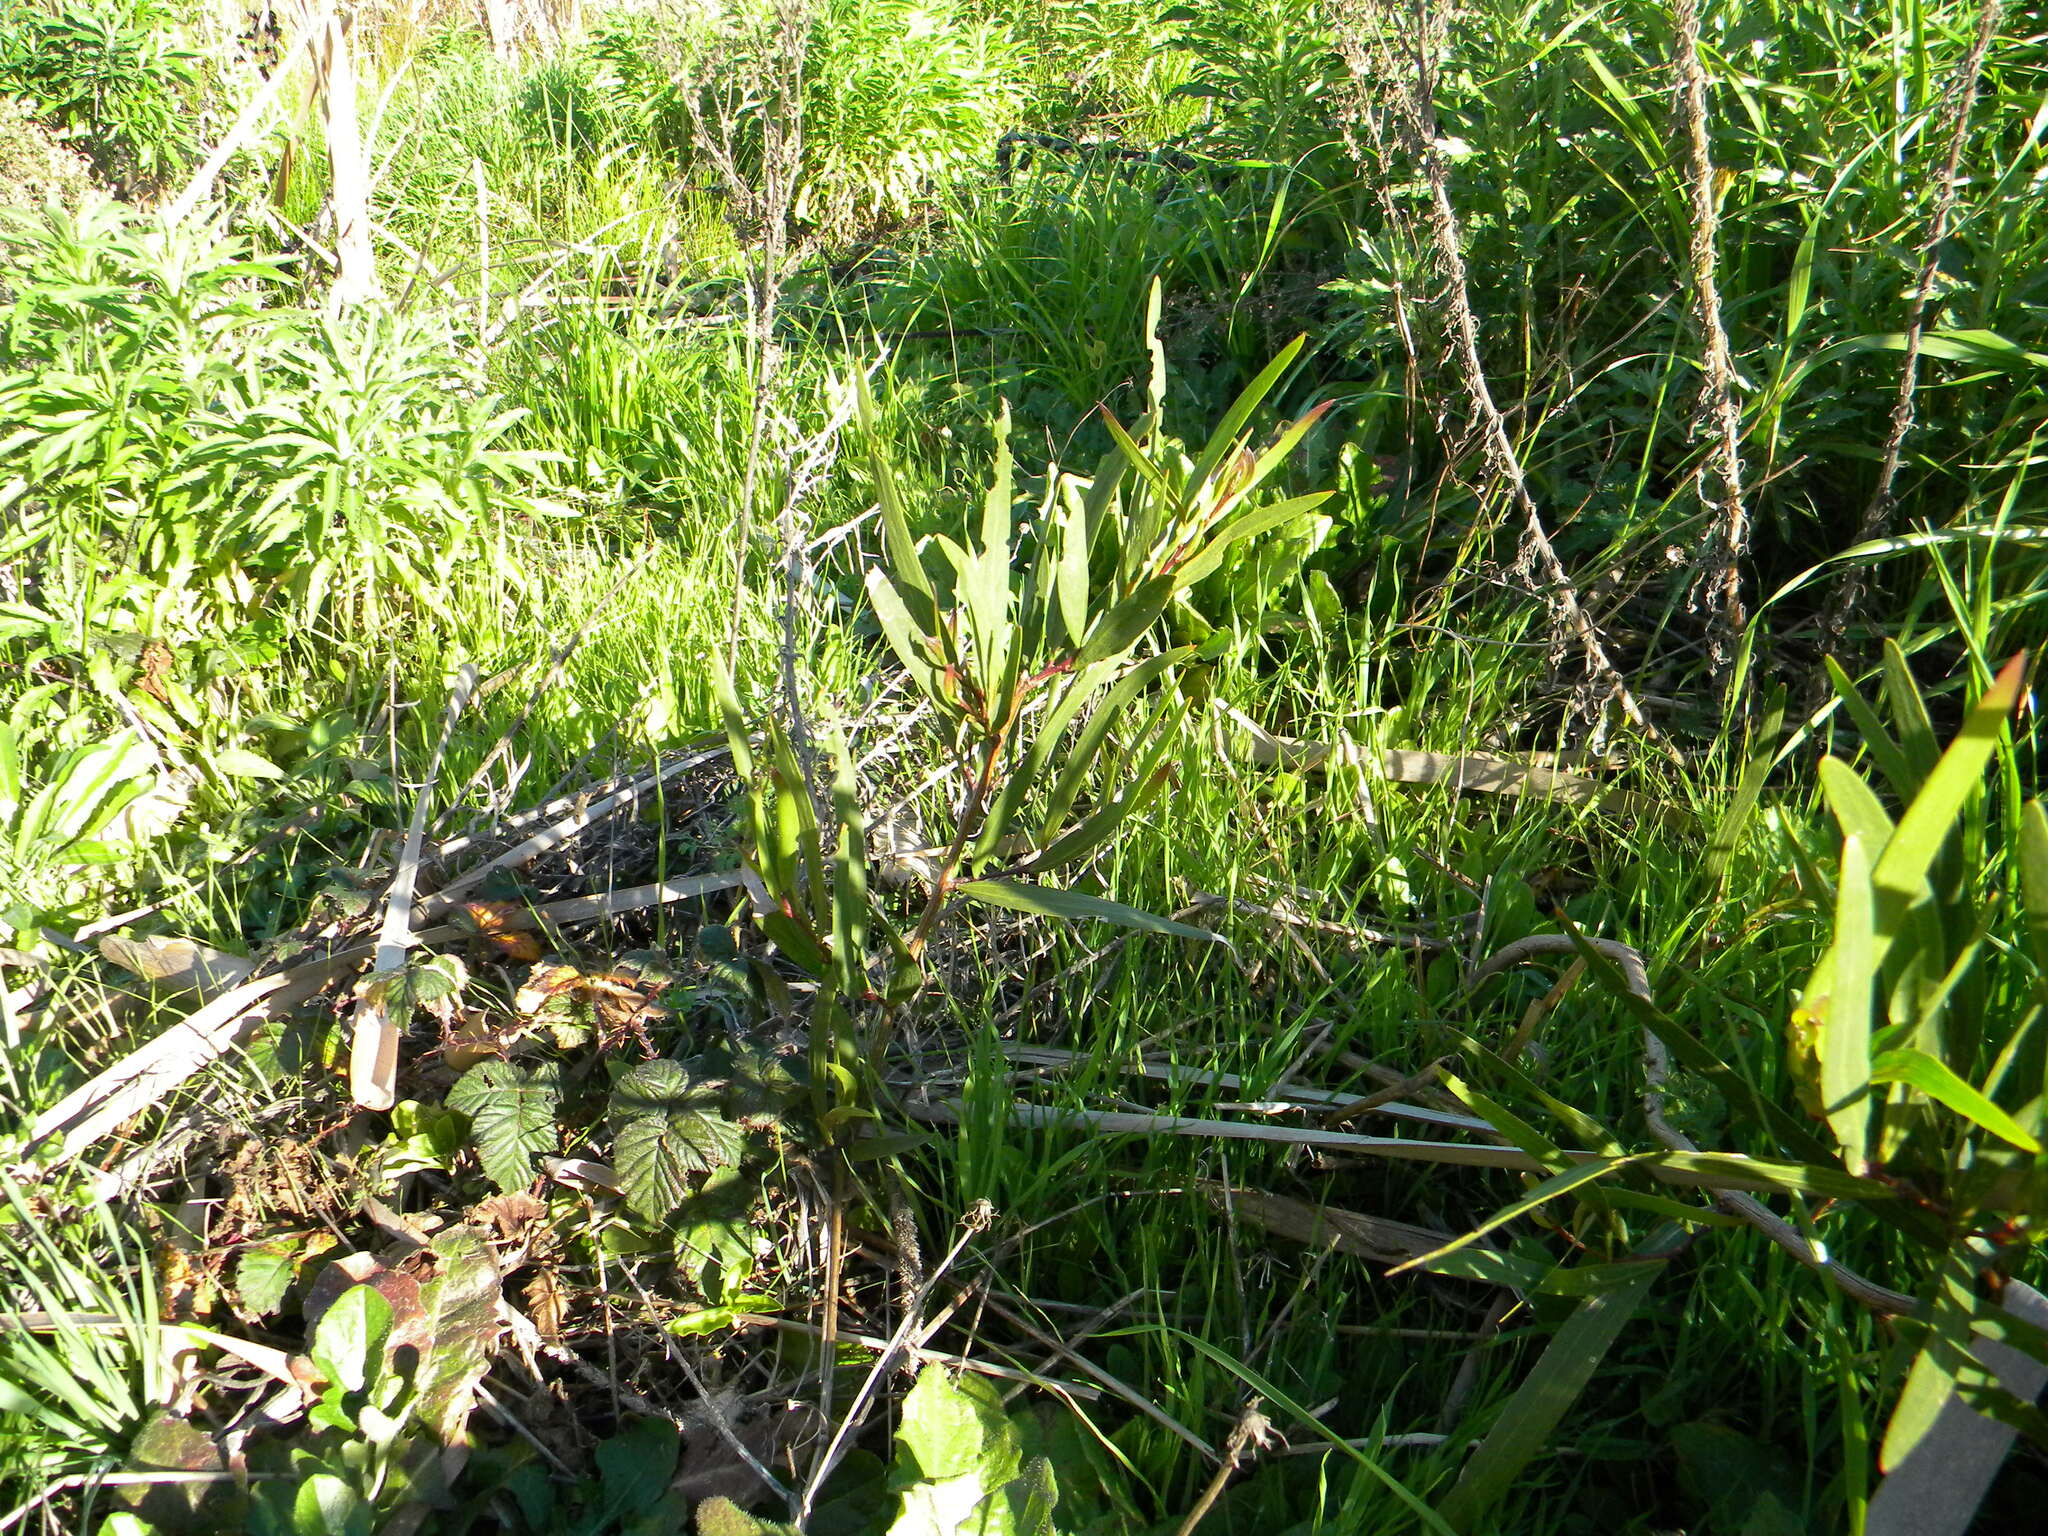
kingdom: Plantae
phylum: Tracheophyta
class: Magnoliopsida
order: Fabales
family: Fabaceae
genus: Acacia
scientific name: Acacia longifolia
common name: Sydney golden wattle
